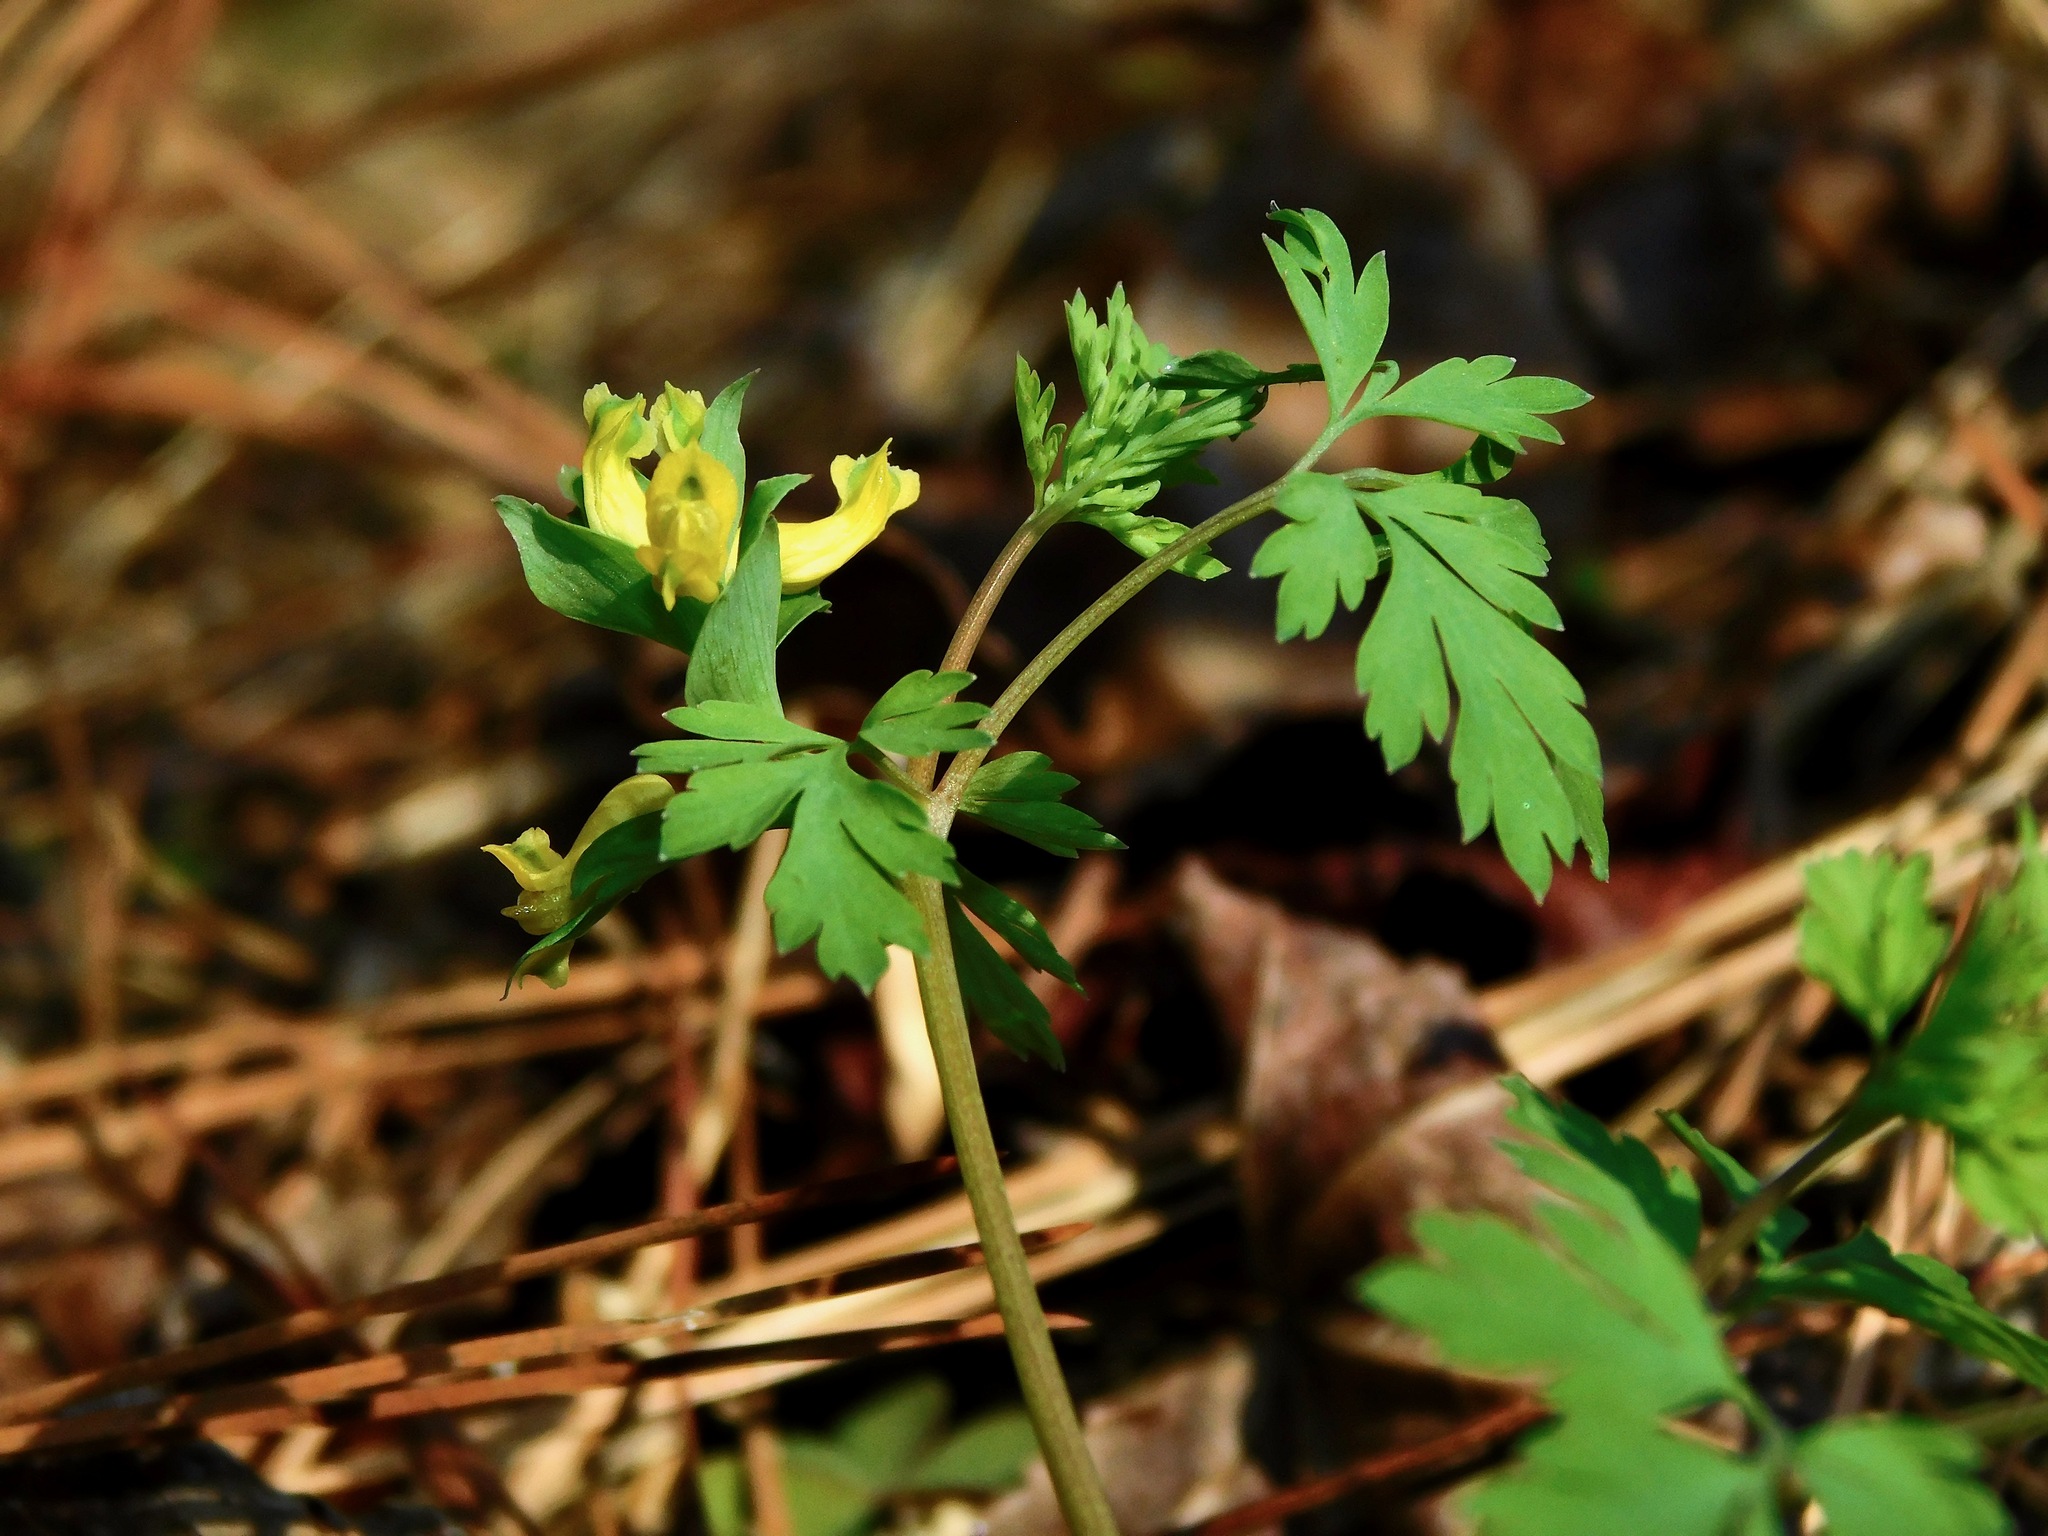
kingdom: Plantae
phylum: Tracheophyta
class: Magnoliopsida
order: Ranunculales
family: Papaveraceae
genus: Corydalis
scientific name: Corydalis flavula
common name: Yellow corydalis
